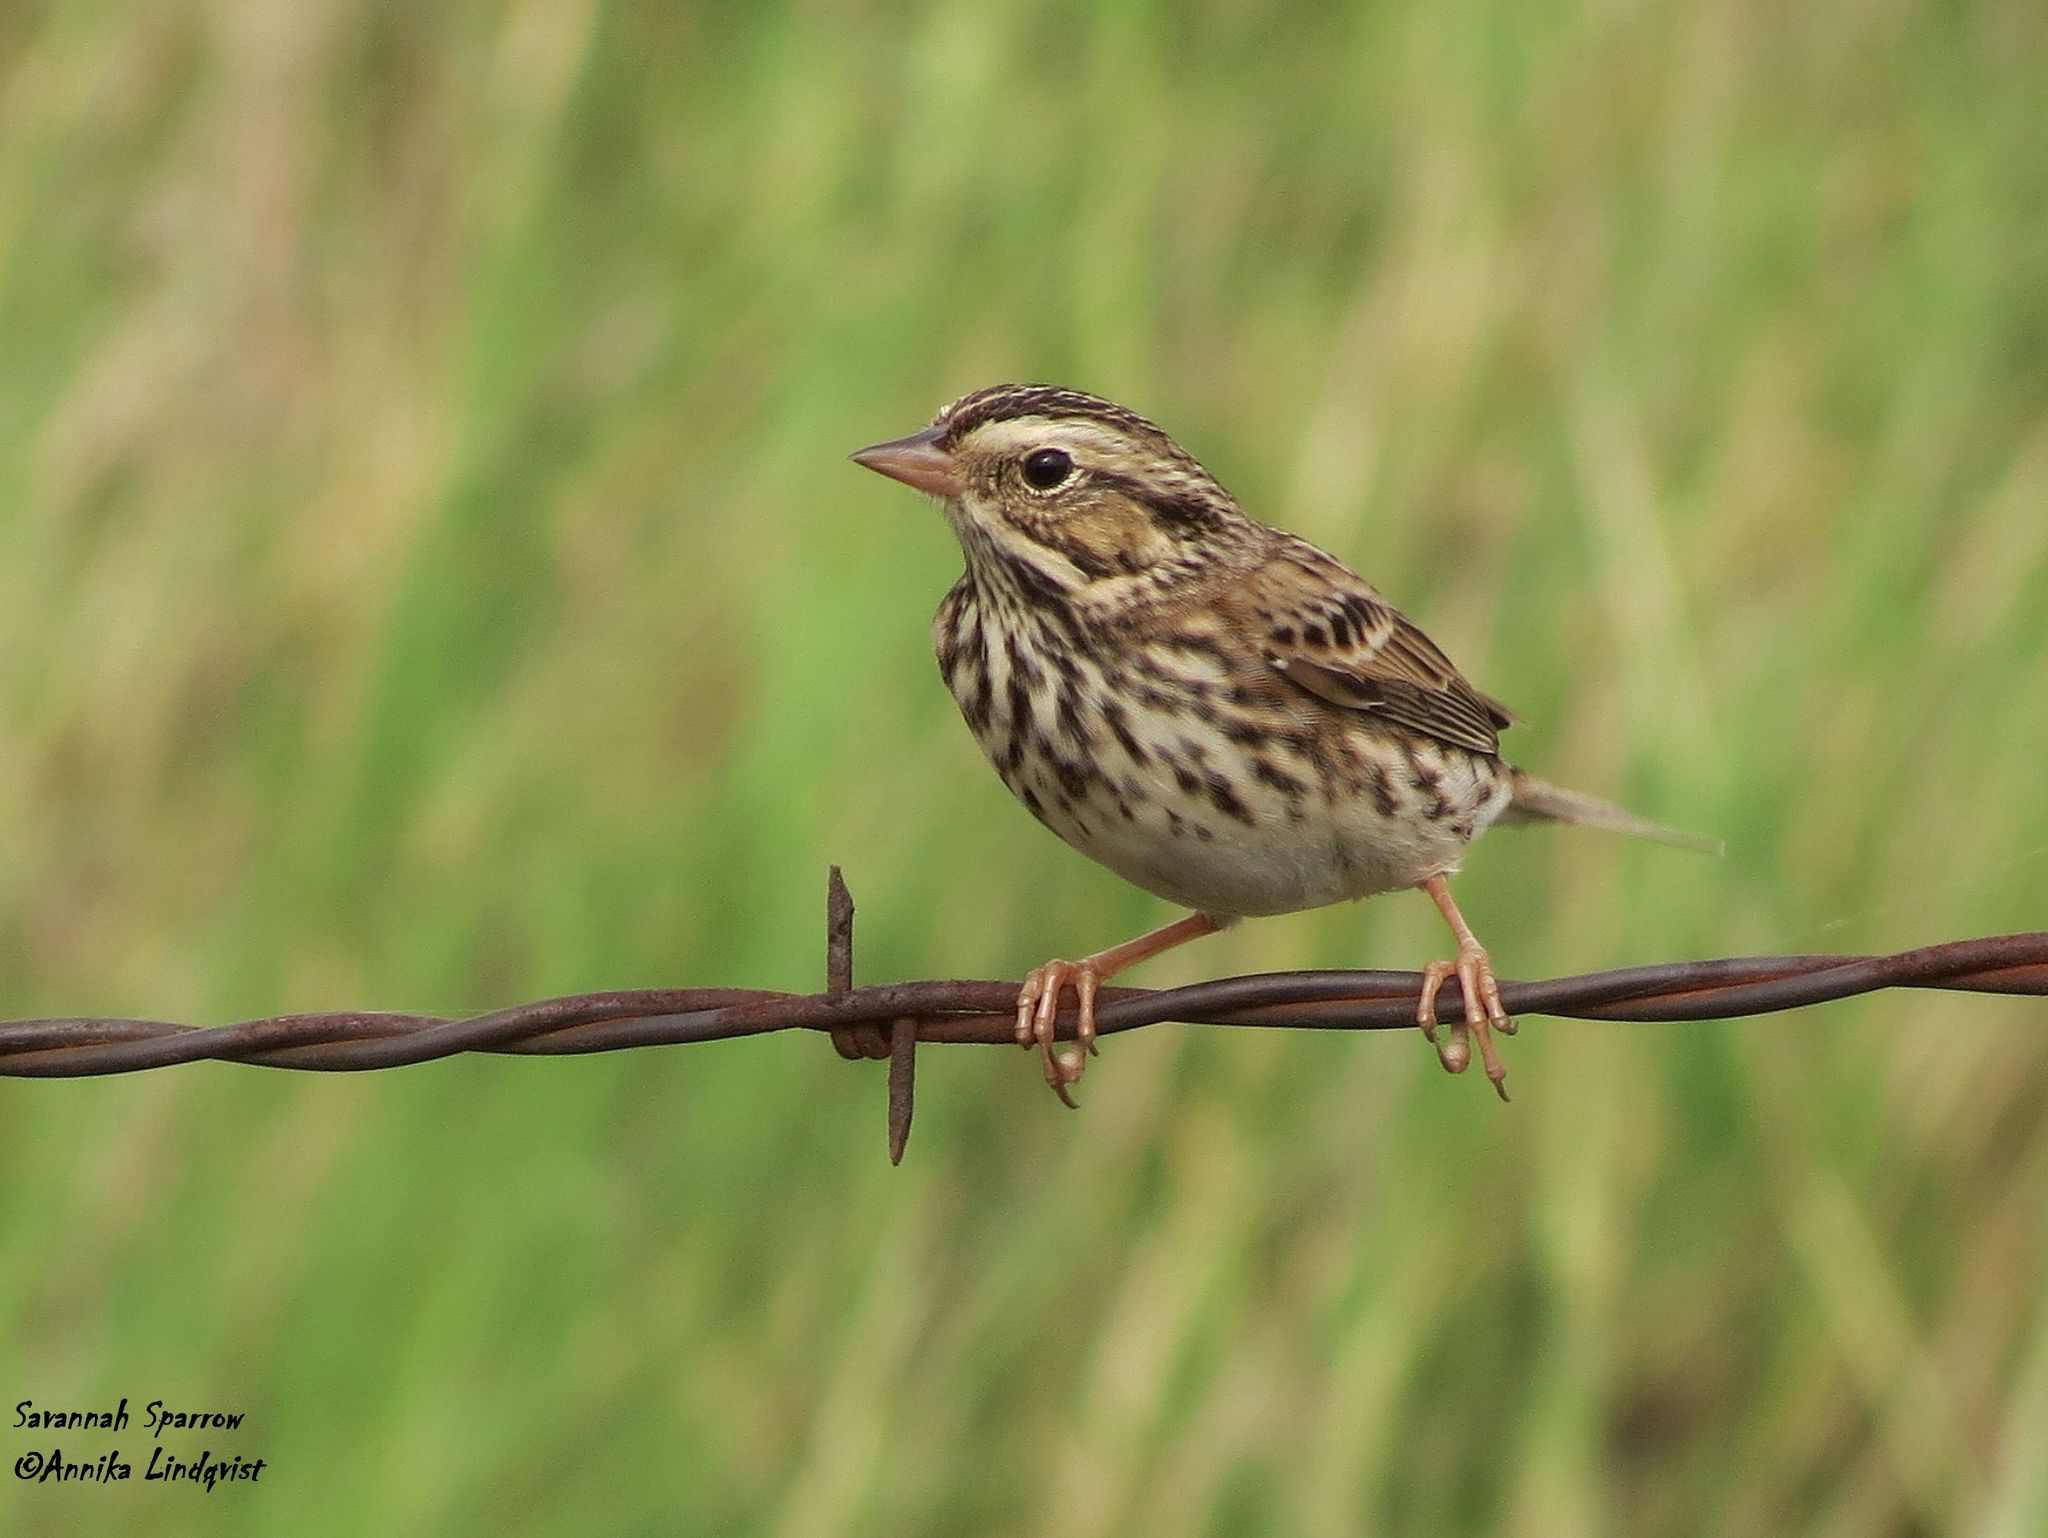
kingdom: Animalia
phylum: Chordata
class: Aves
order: Passeriformes
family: Passerellidae
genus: Passerculus
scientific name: Passerculus sandwichensis
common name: Savannah sparrow
